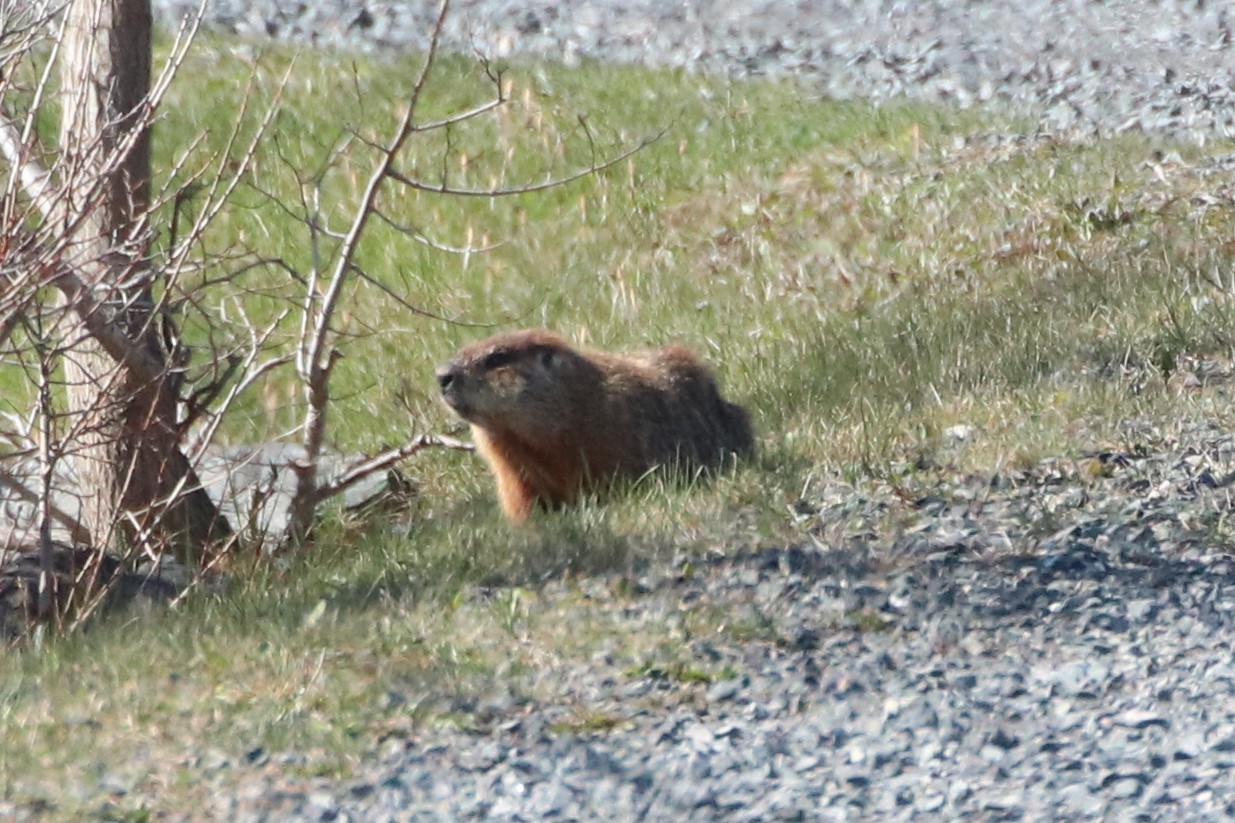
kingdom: Animalia
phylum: Chordata
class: Mammalia
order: Rodentia
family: Sciuridae
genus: Marmota
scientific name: Marmota monax
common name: Groundhog
